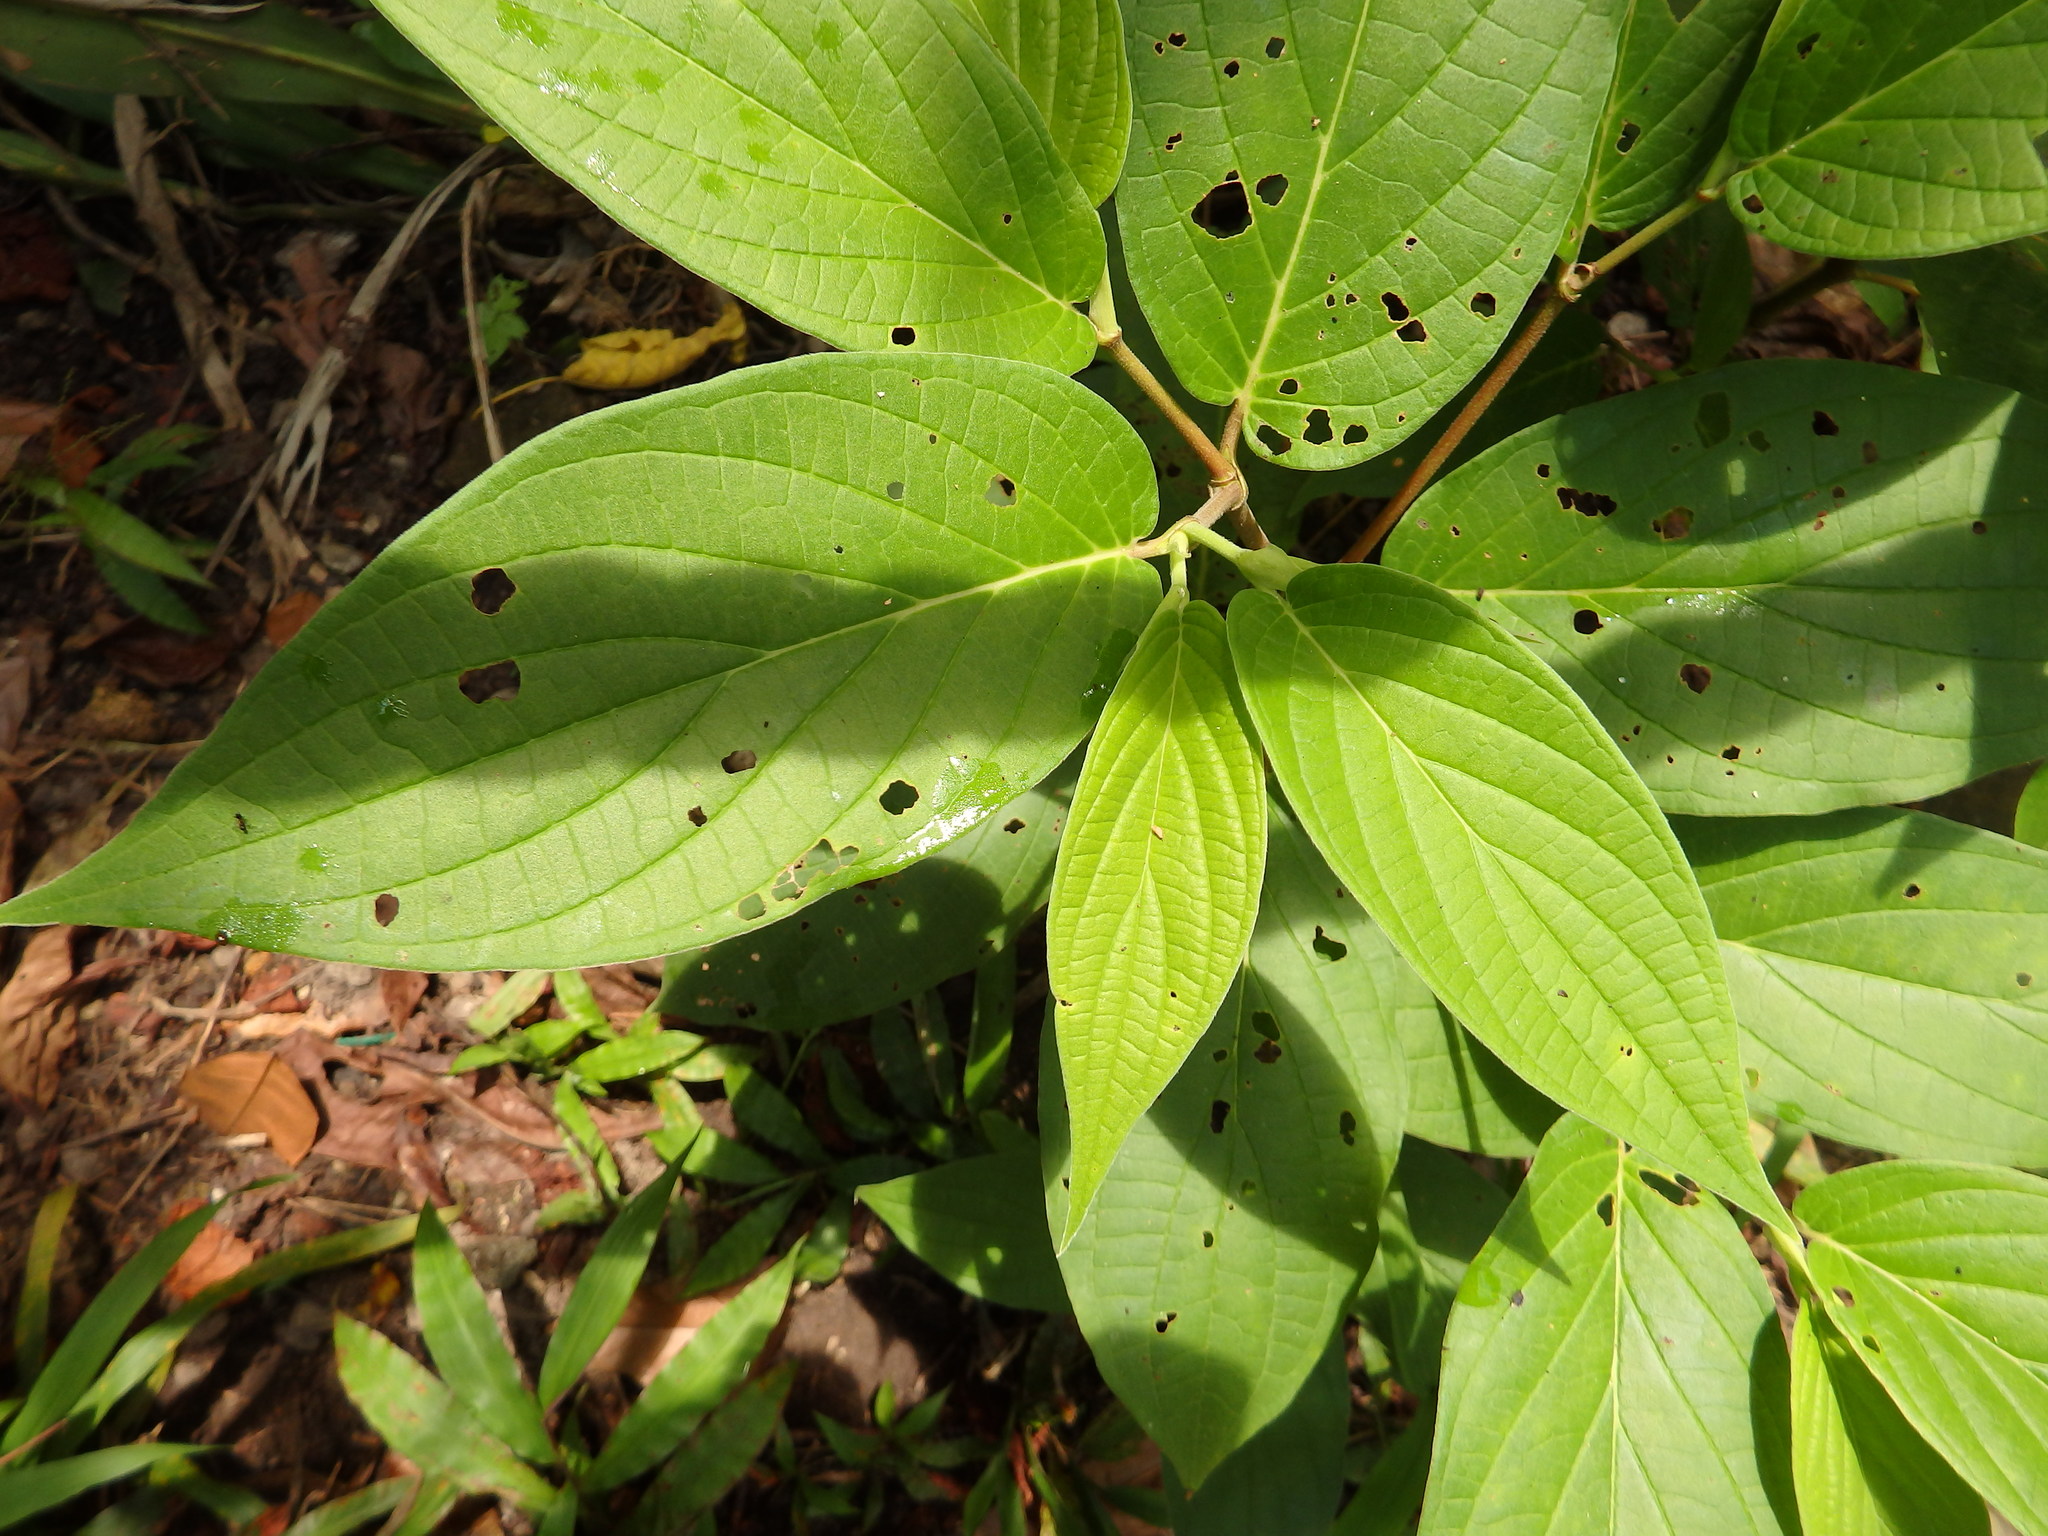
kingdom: Plantae
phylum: Tracheophyta
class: Magnoliopsida
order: Piperales
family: Piperaceae
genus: Piper
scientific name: Piper aduncum
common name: Spiked pepper
